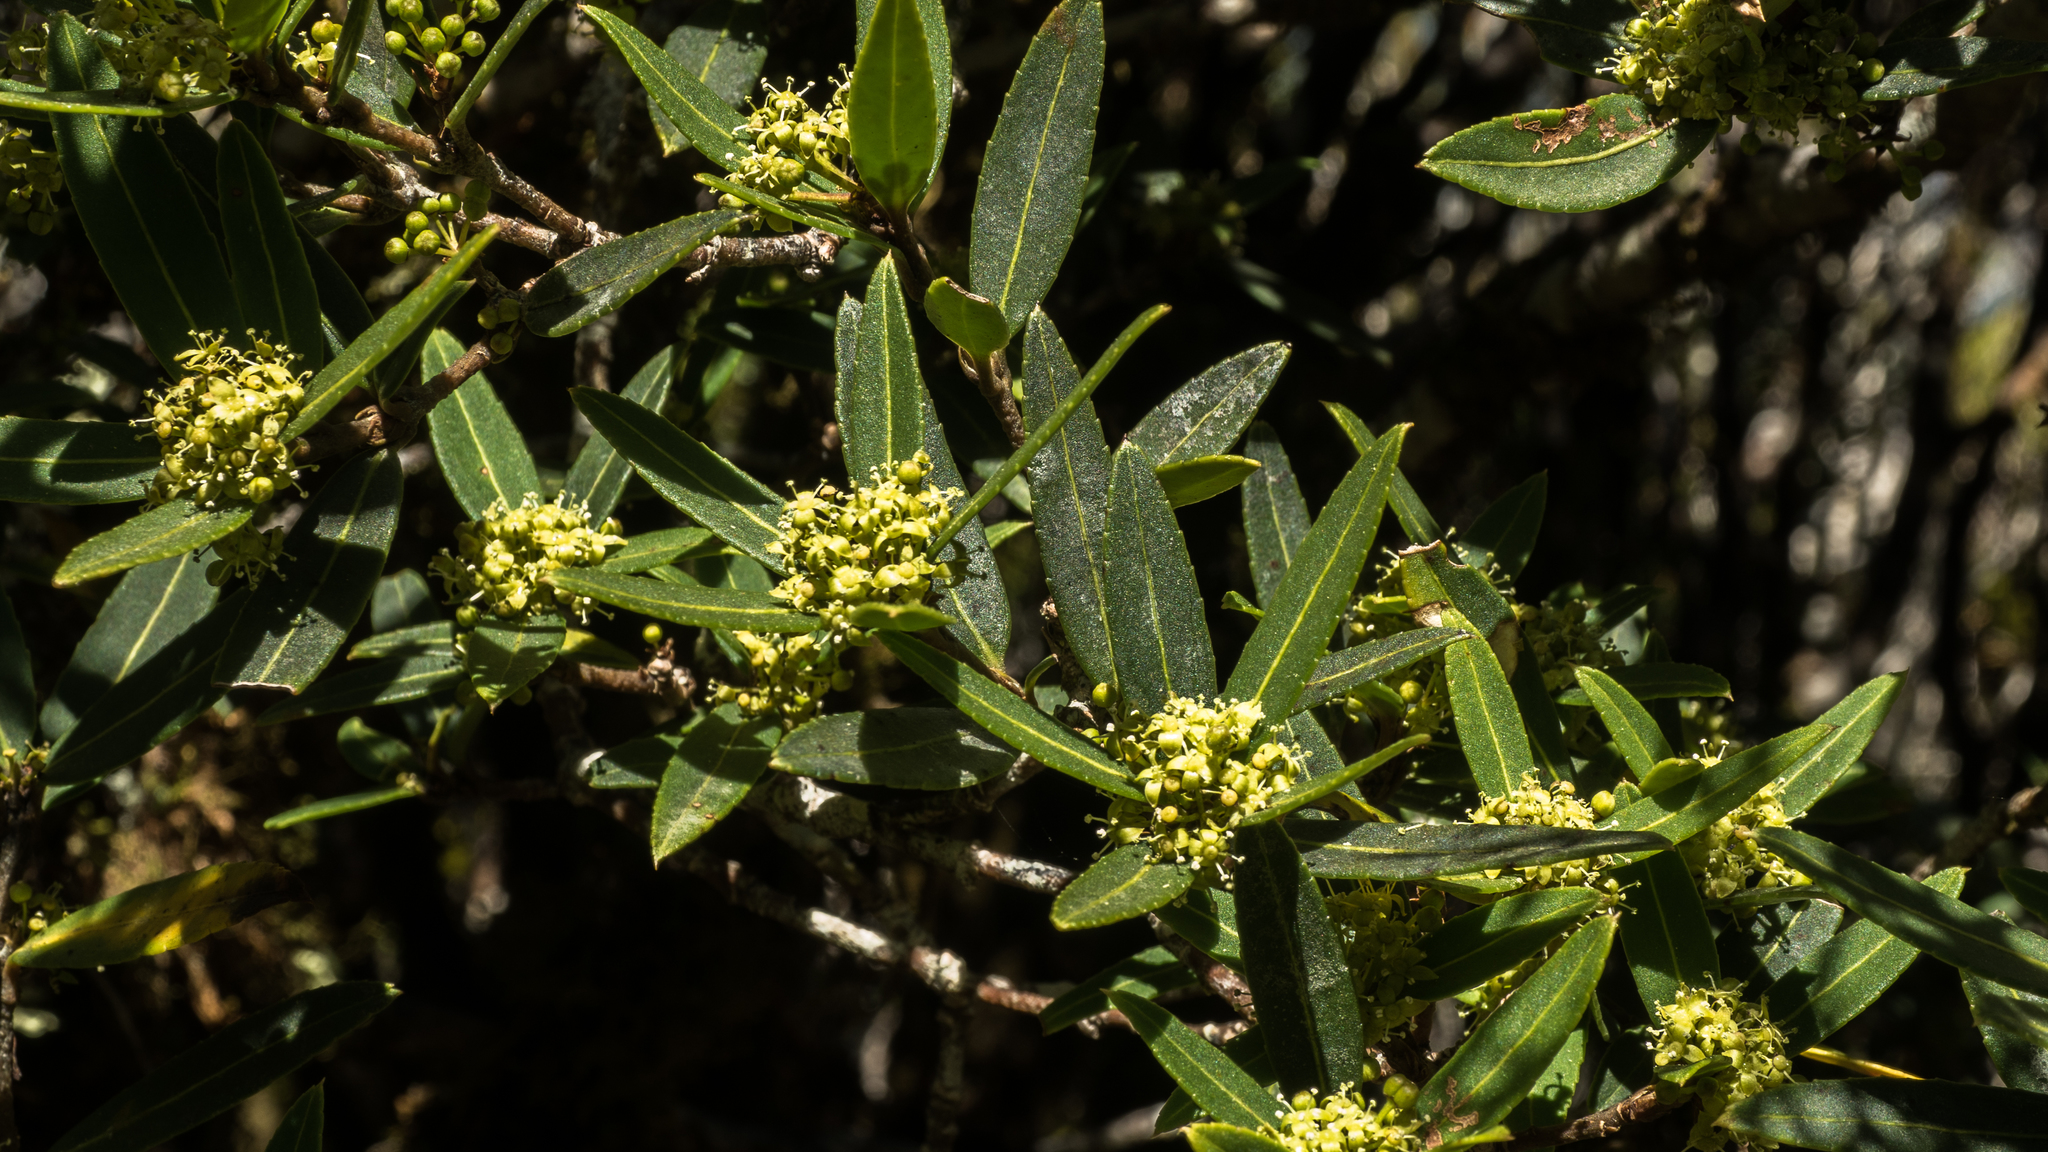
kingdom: Plantae
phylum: Tracheophyta
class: Magnoliopsida
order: Apiales
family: Araliaceae
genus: Pseudopanax
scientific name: Pseudopanax linearis
